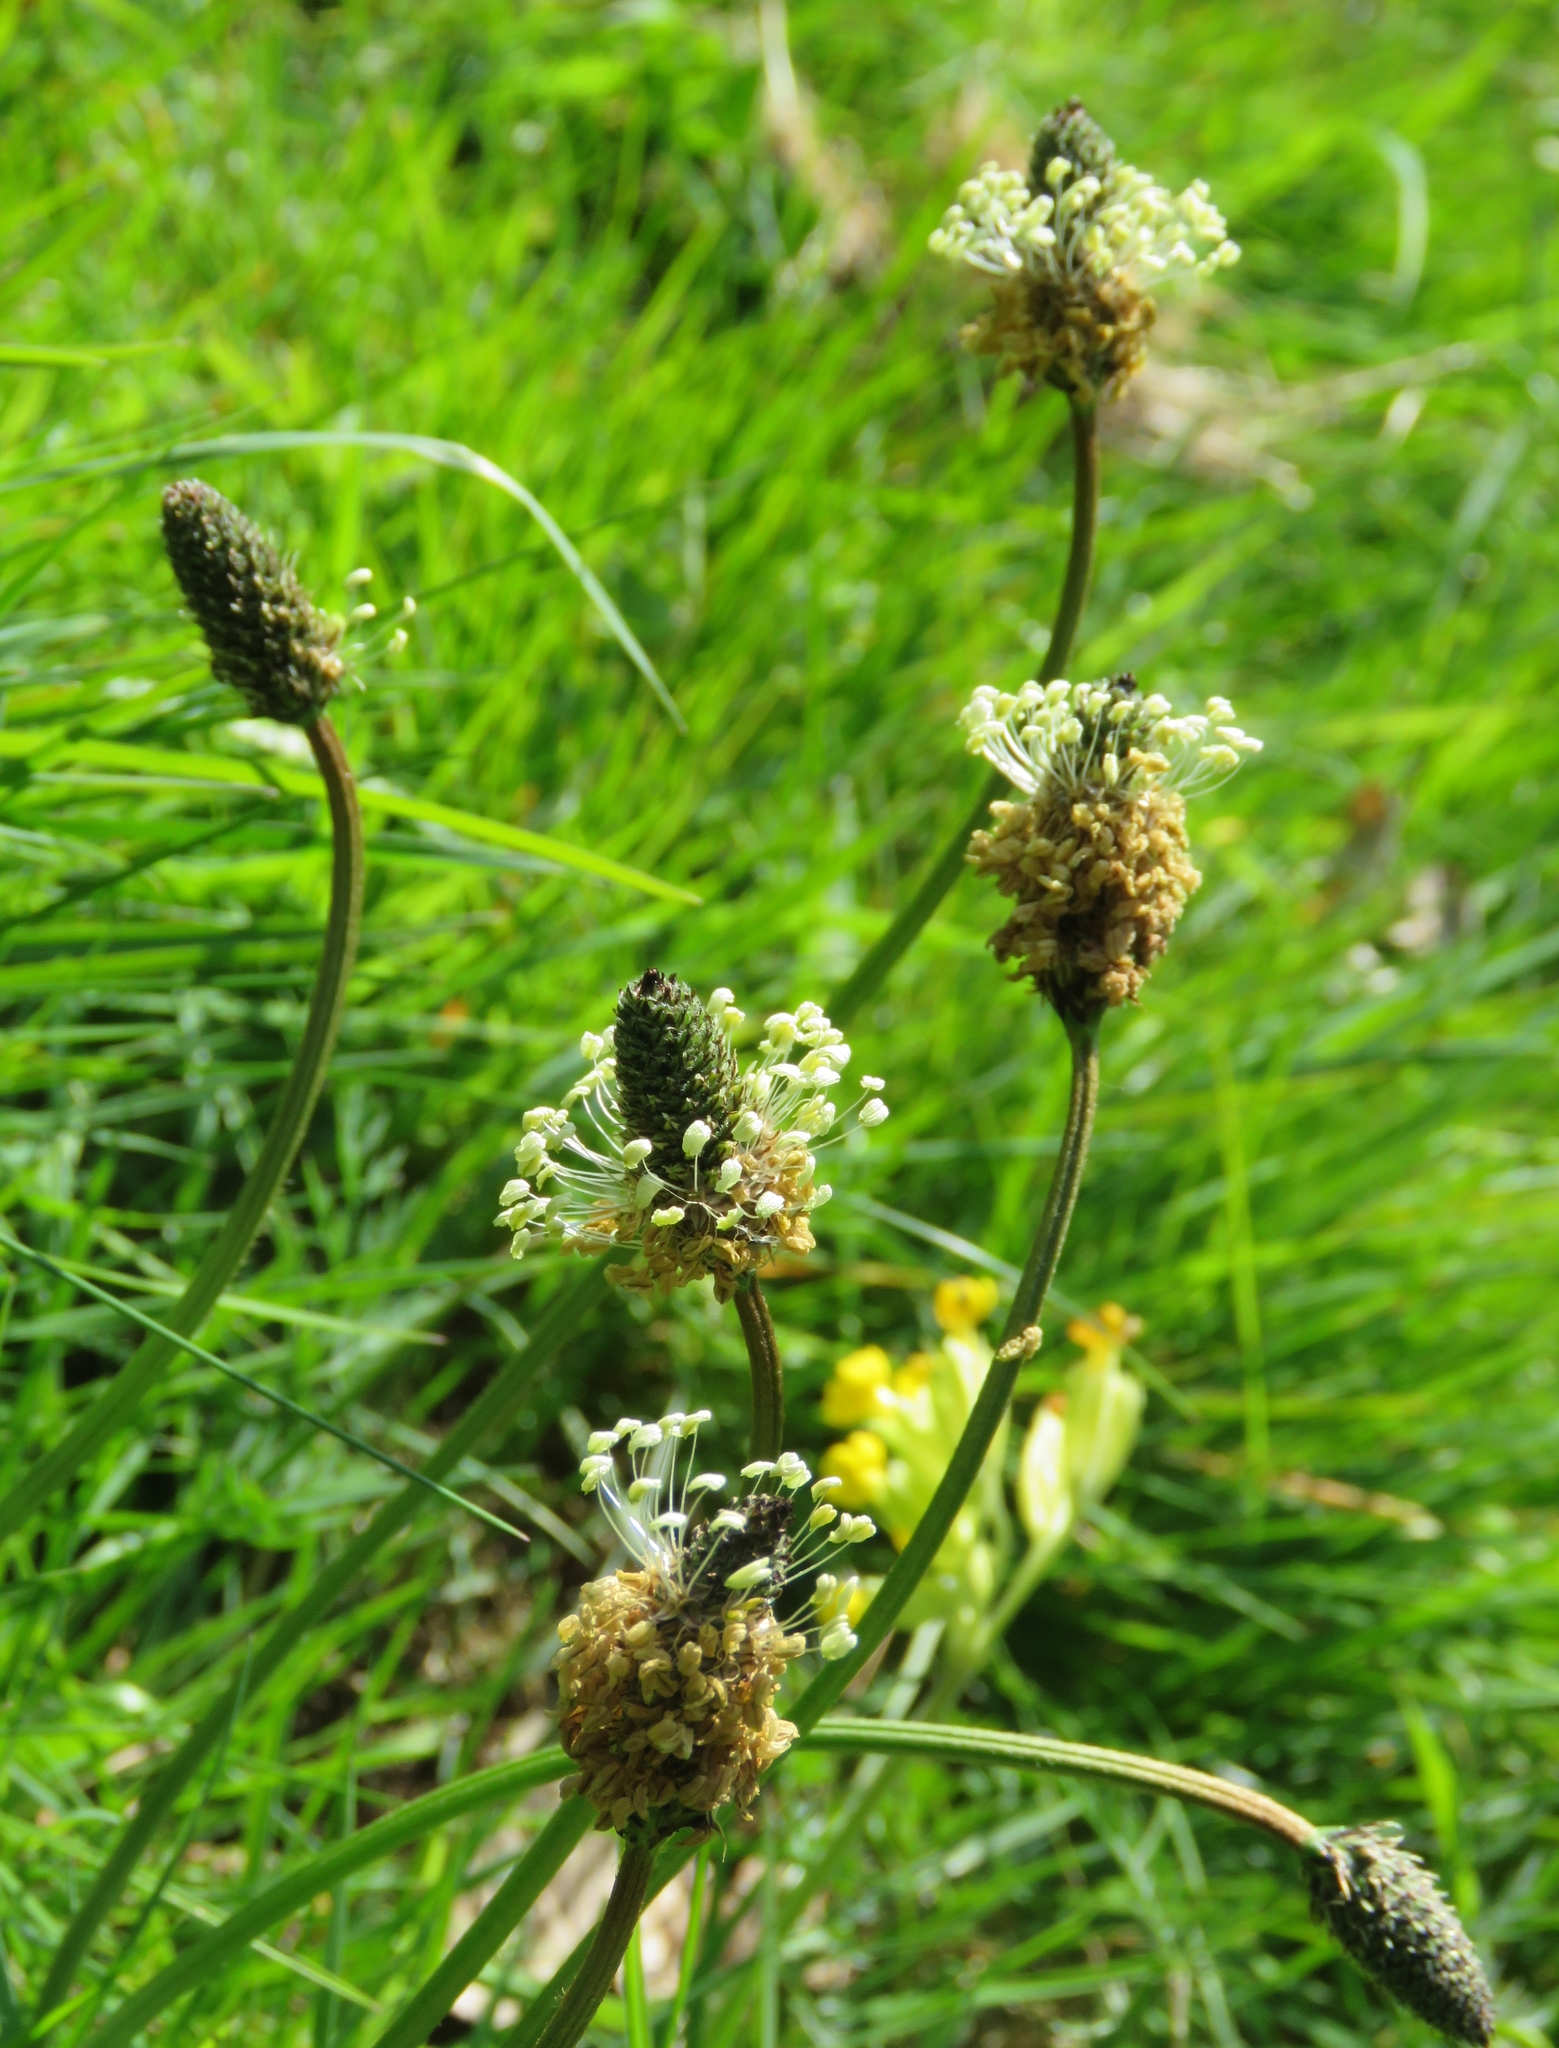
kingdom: Plantae
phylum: Tracheophyta
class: Magnoliopsida
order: Lamiales
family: Plantaginaceae
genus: Plantago
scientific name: Plantago lanceolata
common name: Ribwort plantain
